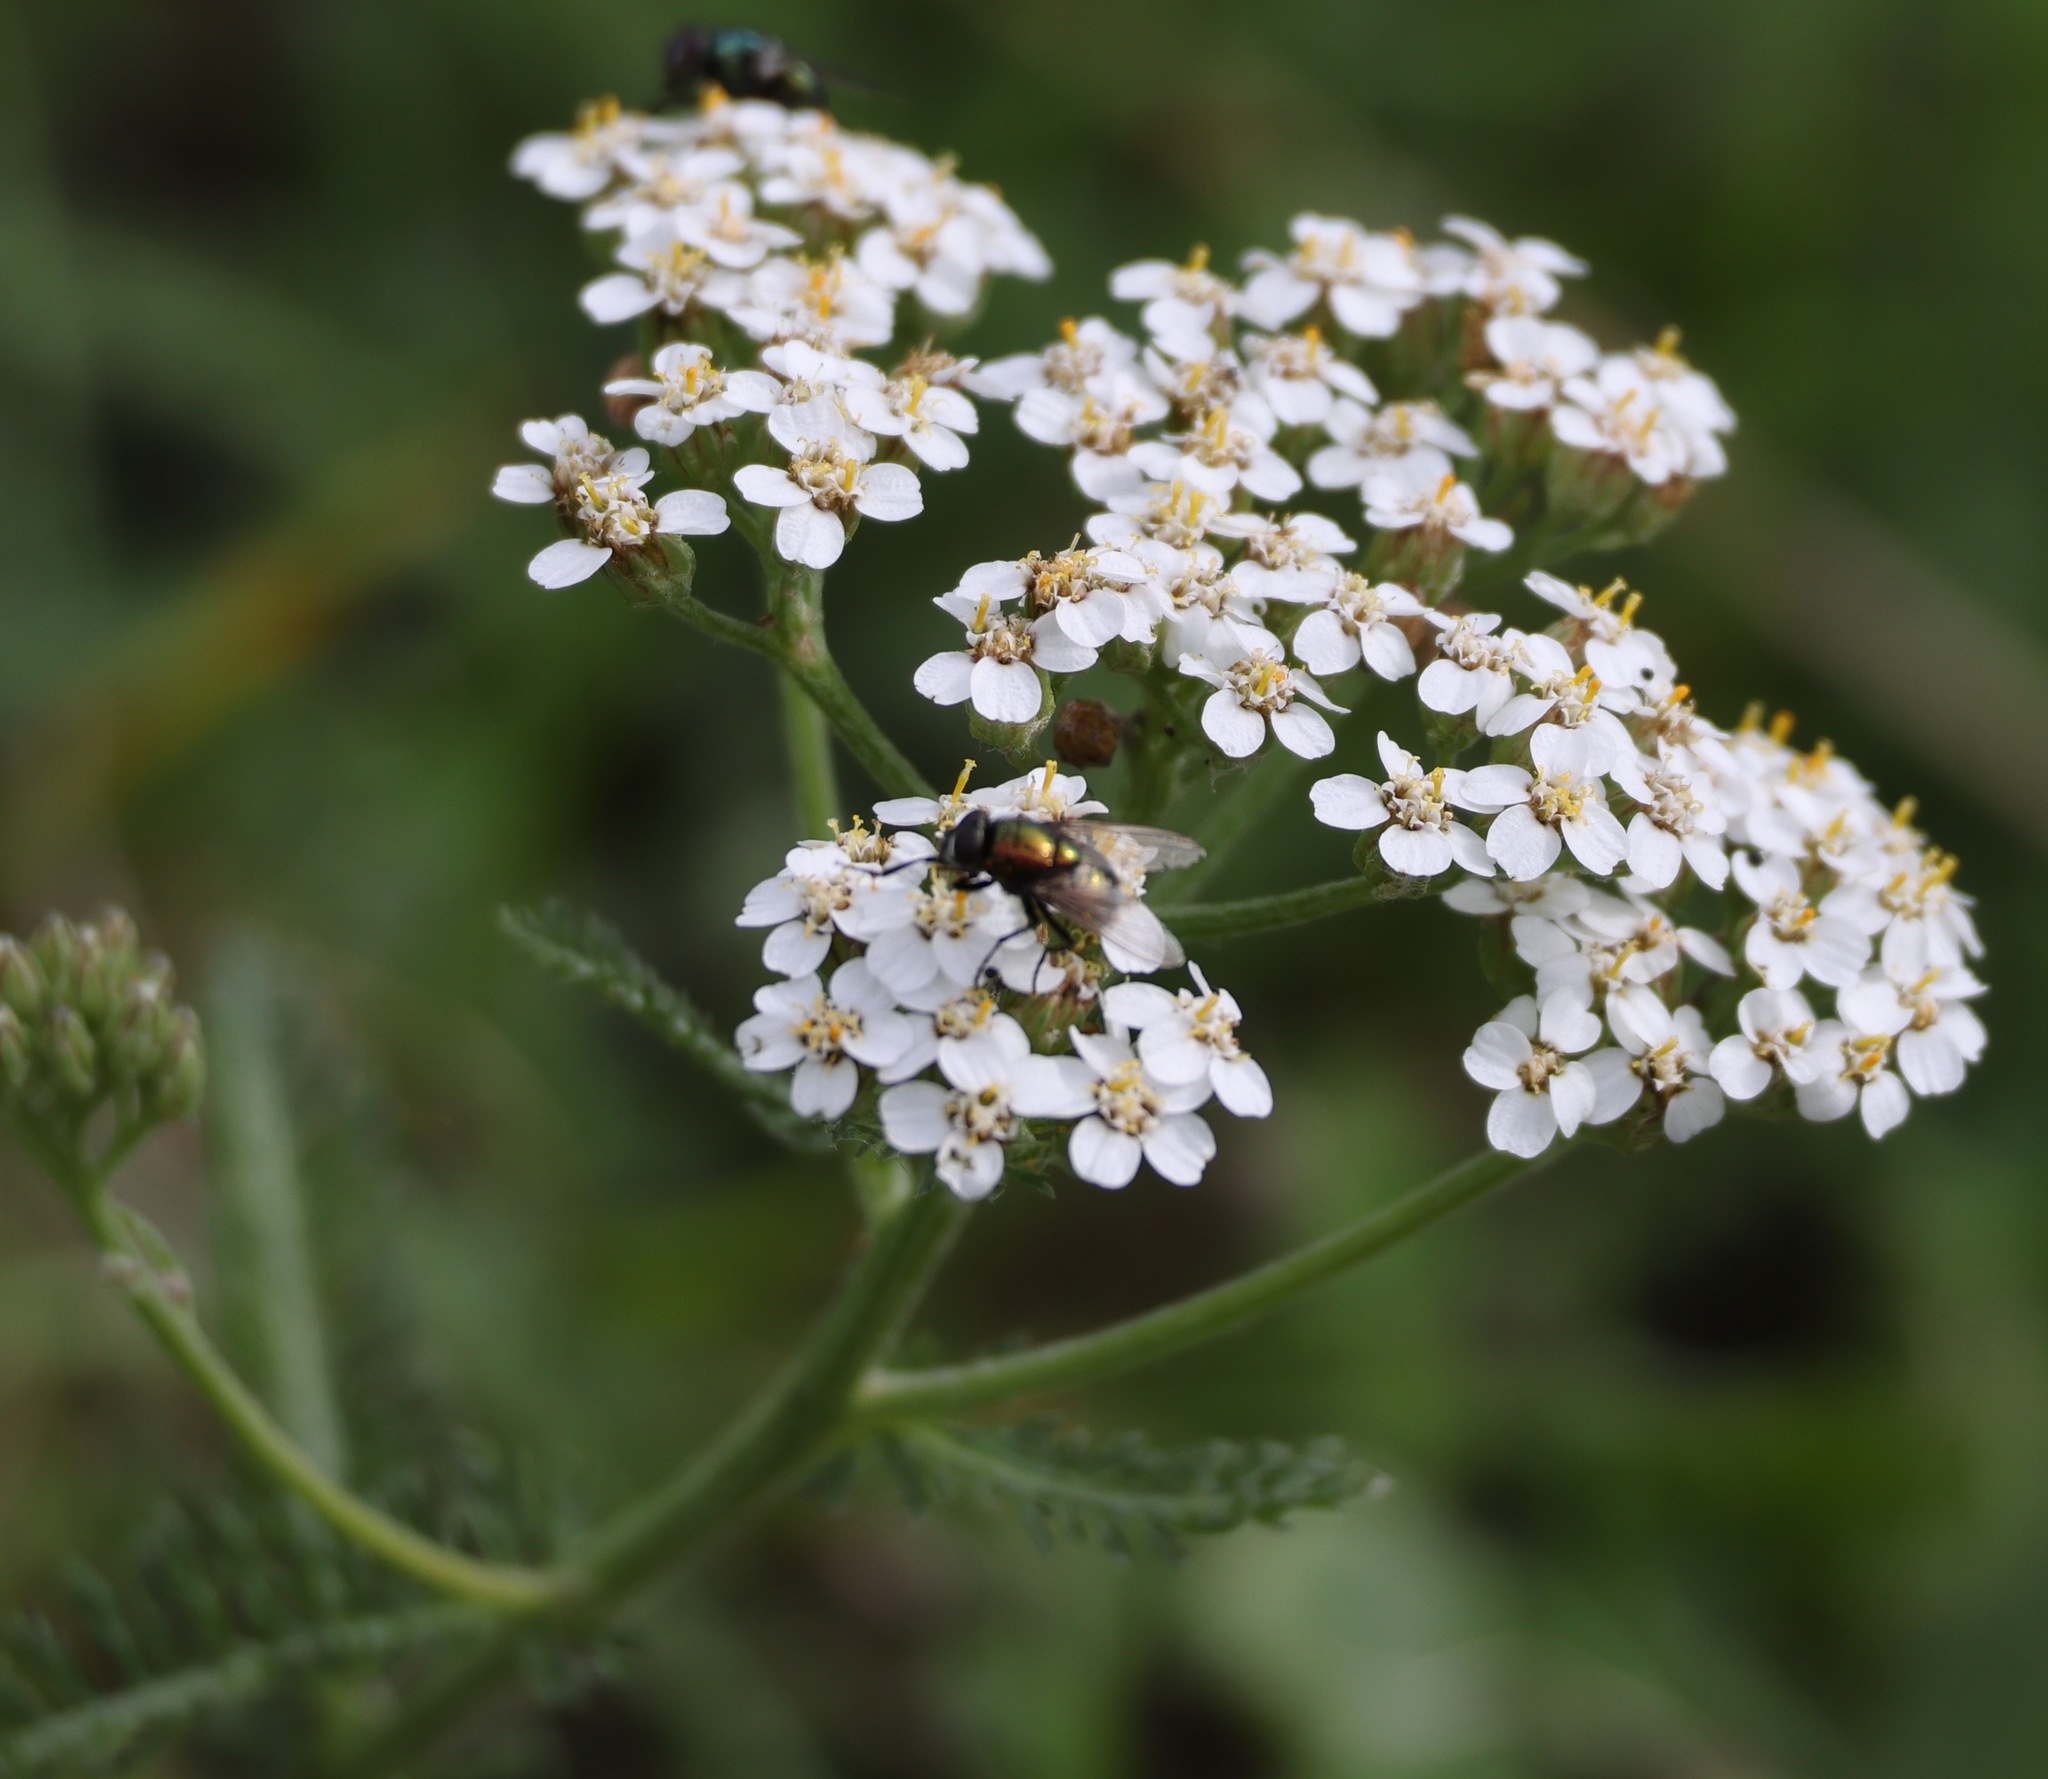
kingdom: Plantae
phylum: Tracheophyta
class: Magnoliopsida
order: Asterales
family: Asteraceae
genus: Achillea
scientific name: Achillea millefolium
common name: Yarrow
